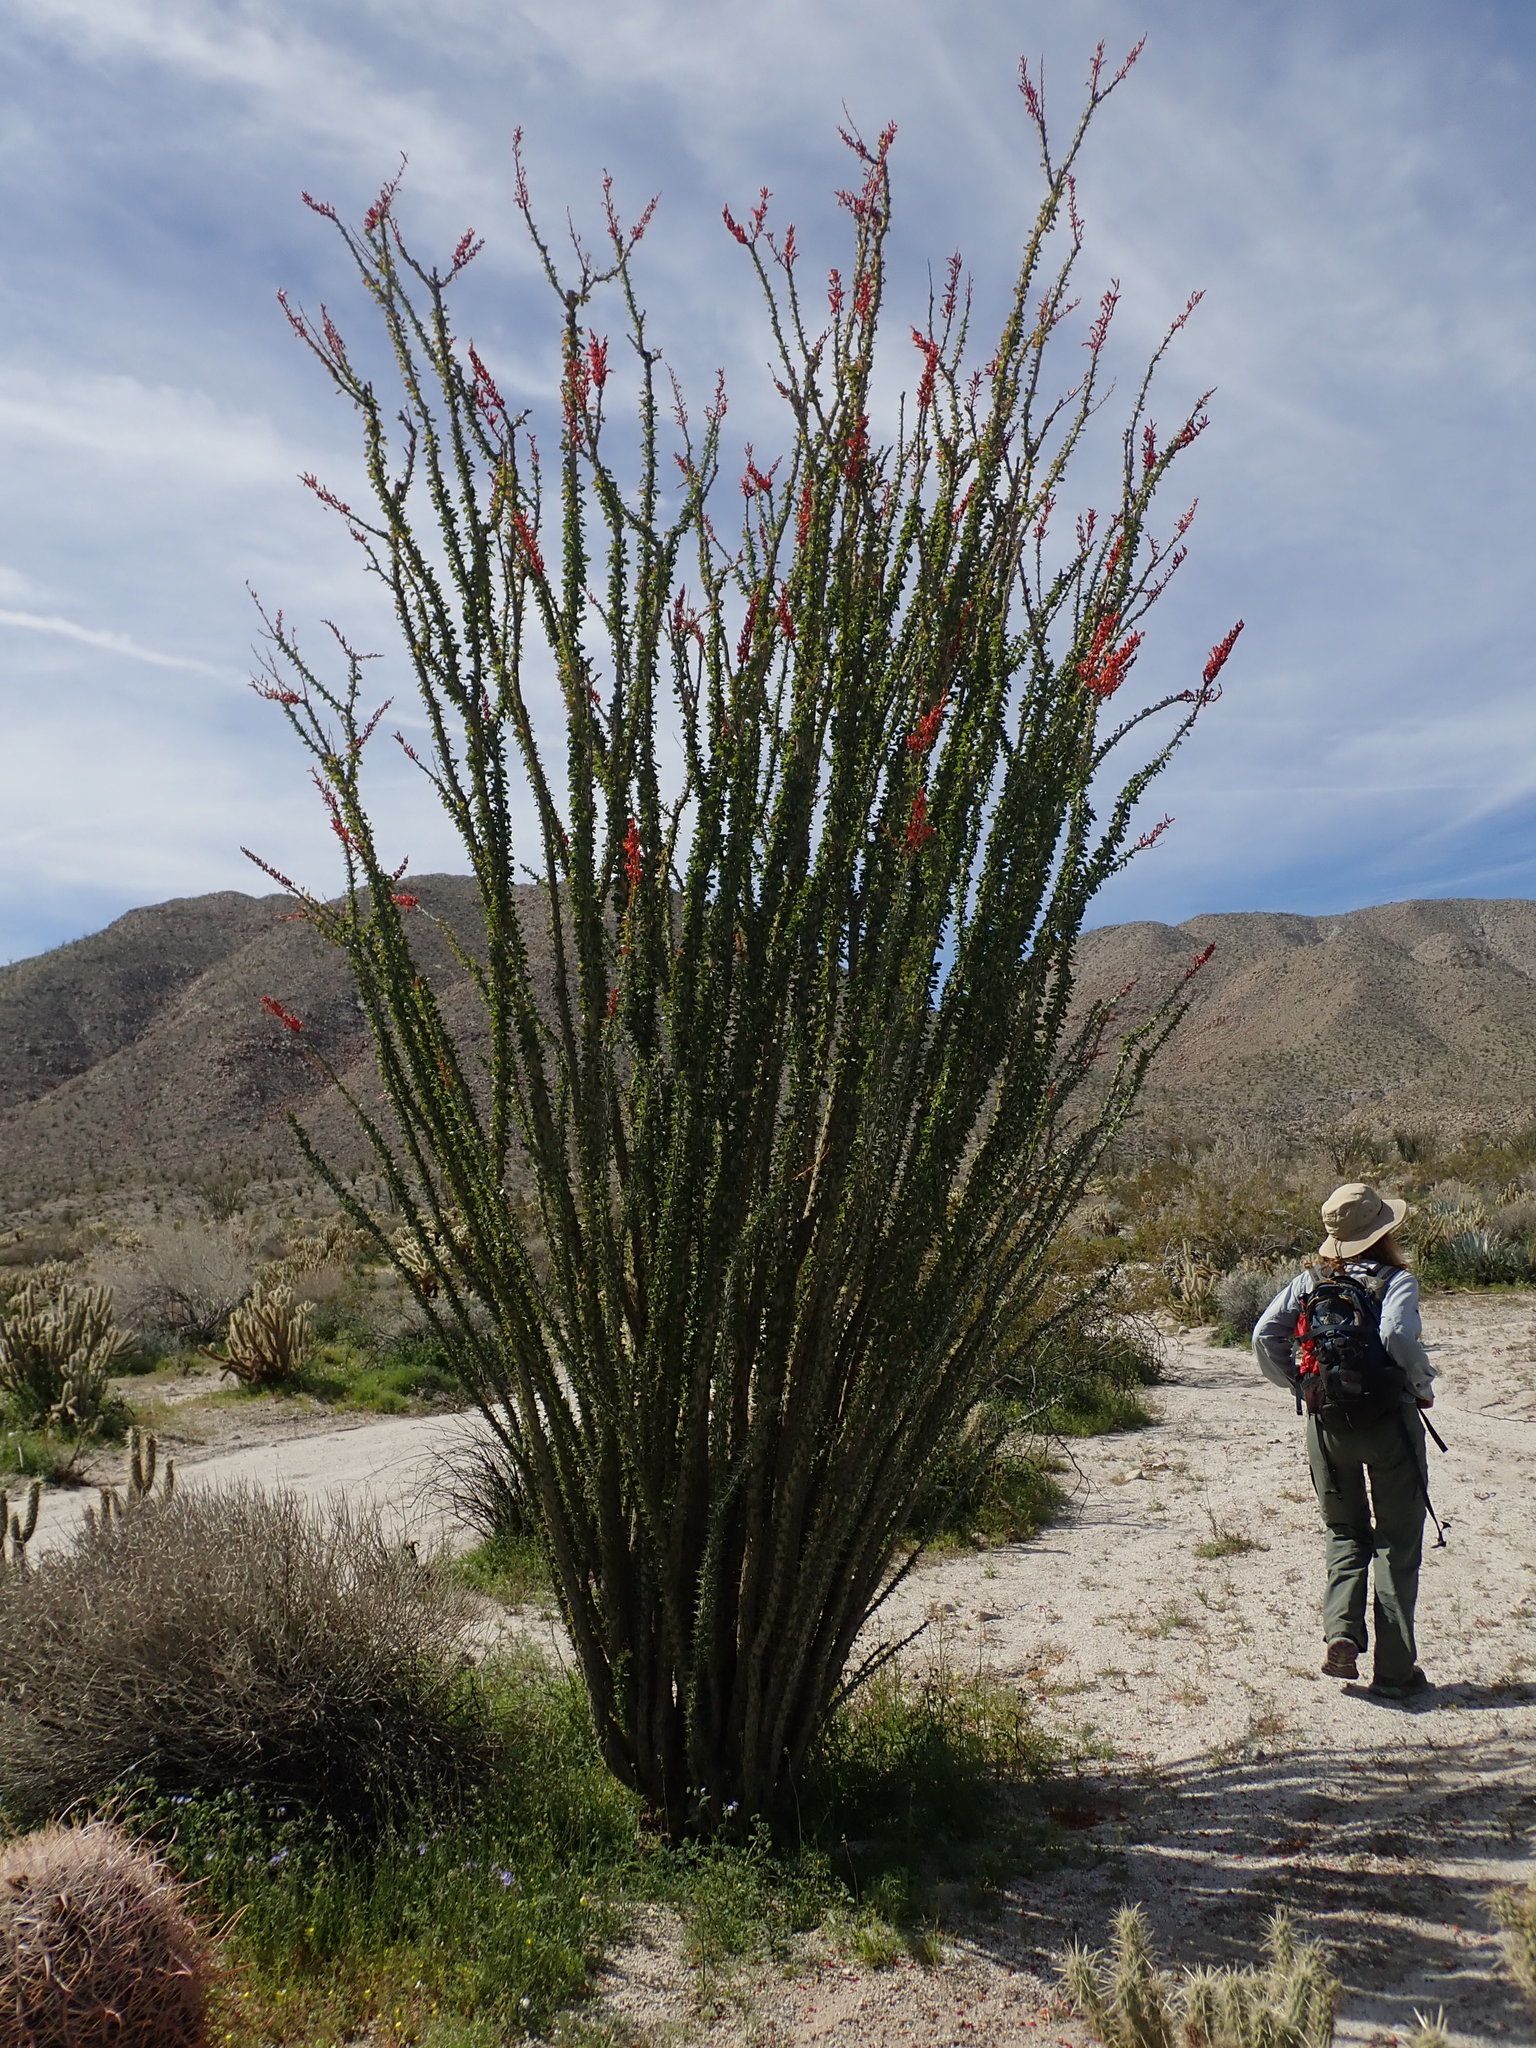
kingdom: Plantae
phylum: Tracheophyta
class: Magnoliopsida
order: Ericales
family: Fouquieriaceae
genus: Fouquieria
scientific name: Fouquieria splendens
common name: Vine-cactus
